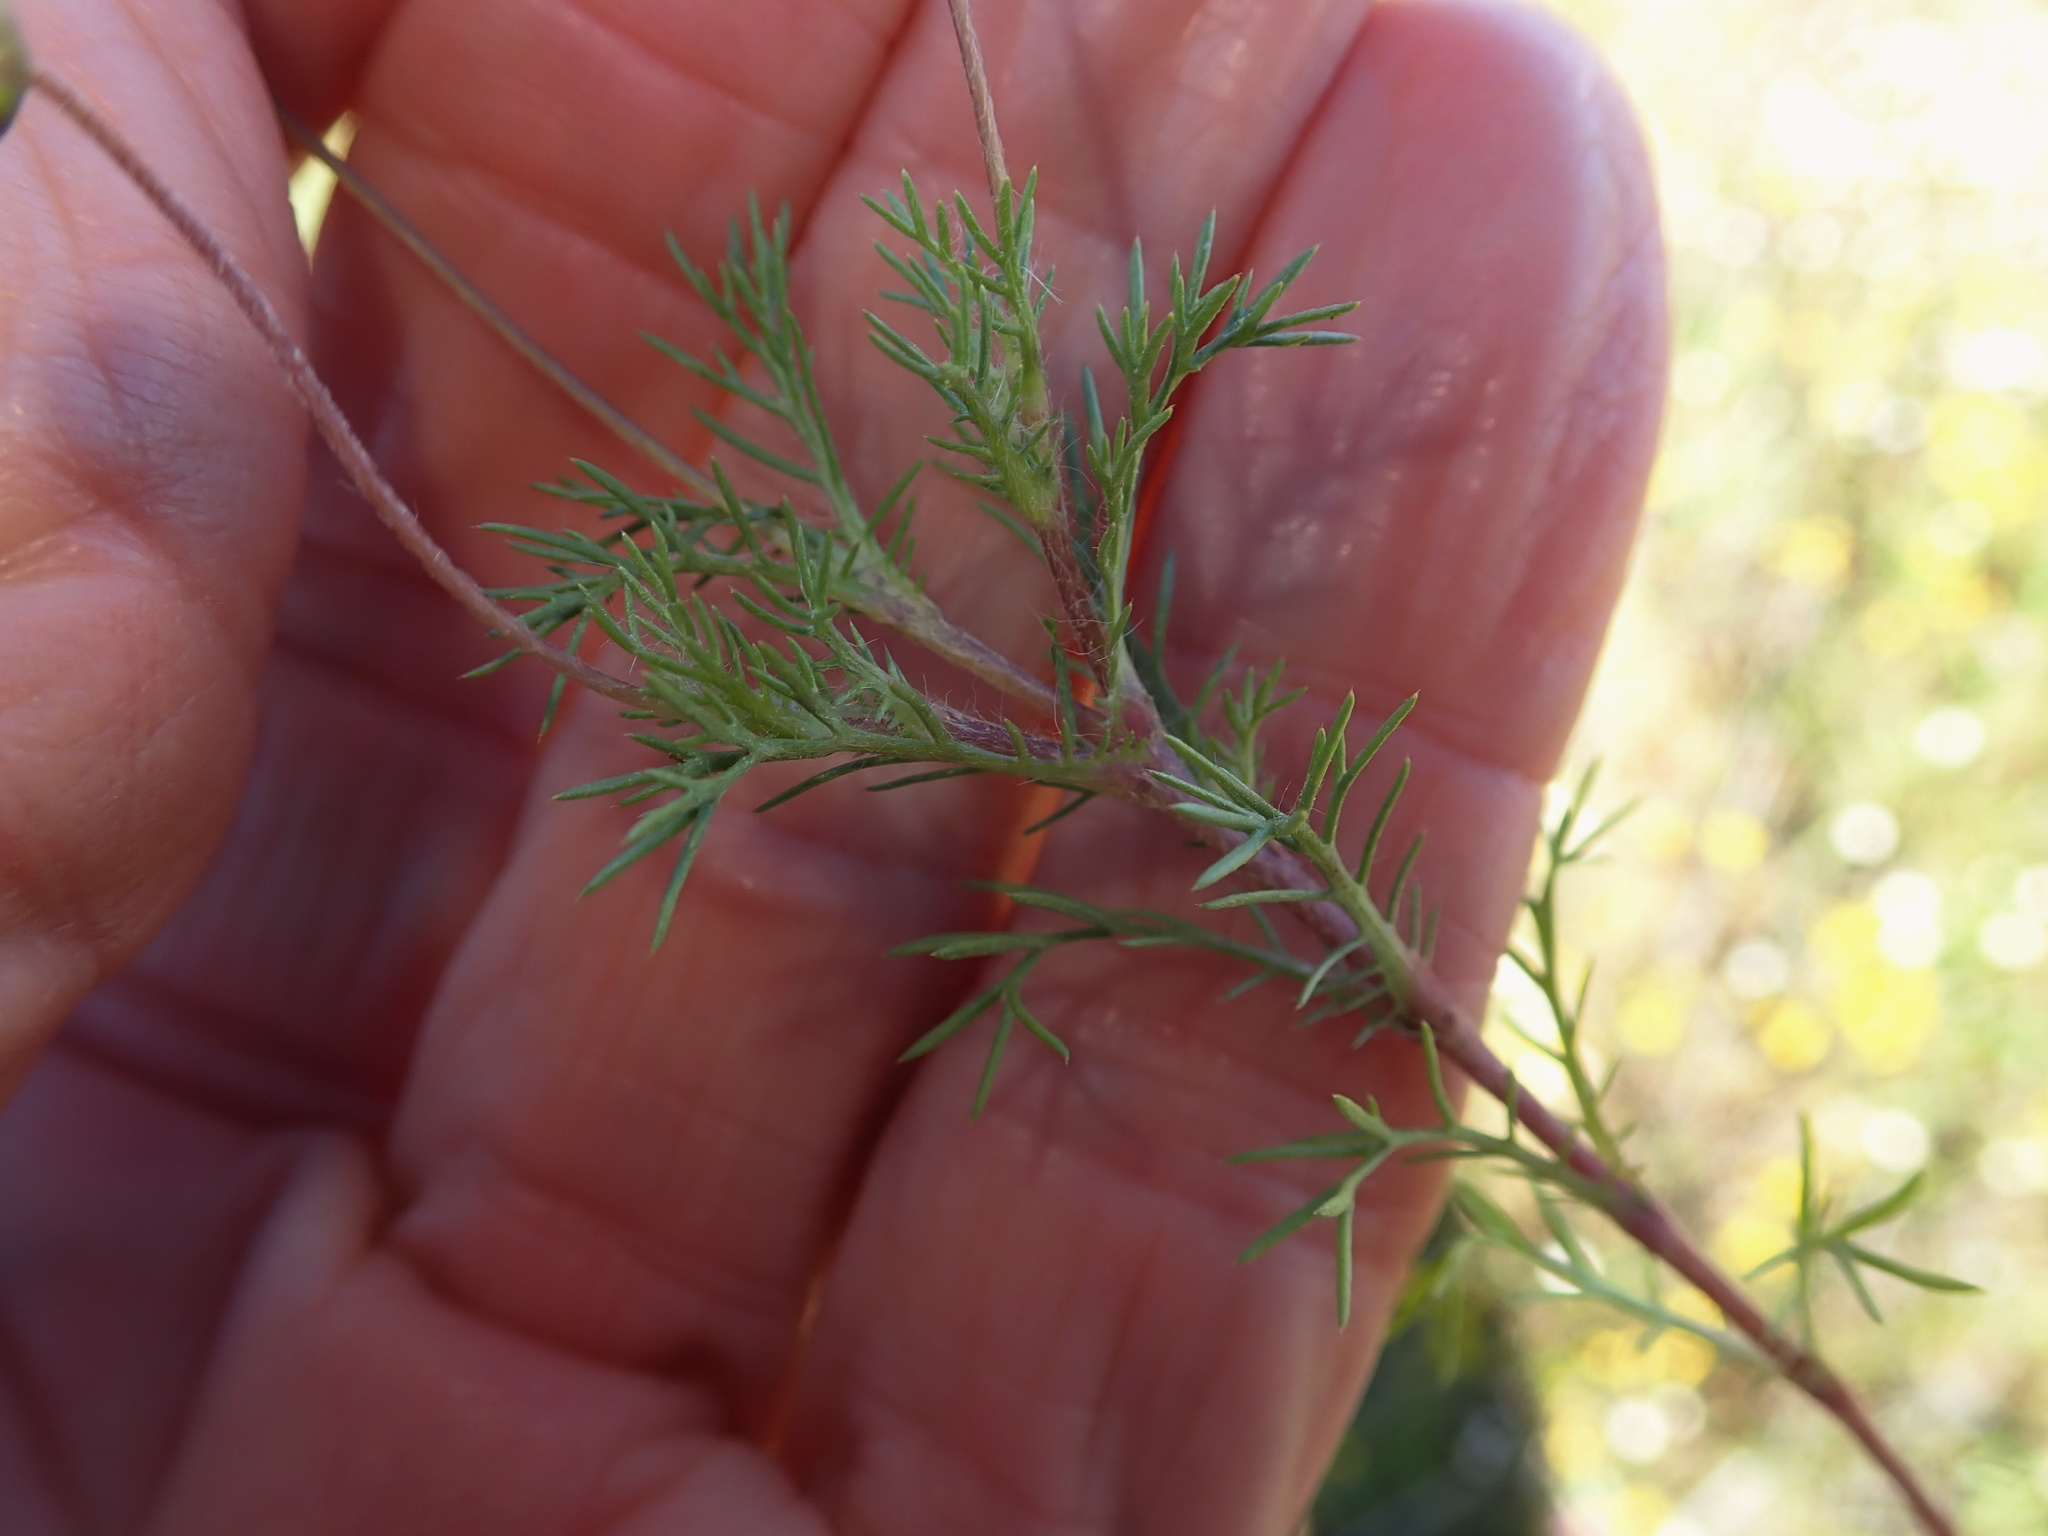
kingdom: Plantae
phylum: Tracheophyta
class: Magnoliopsida
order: Asterales
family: Asteraceae
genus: Cotula
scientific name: Cotula nudicaulis
